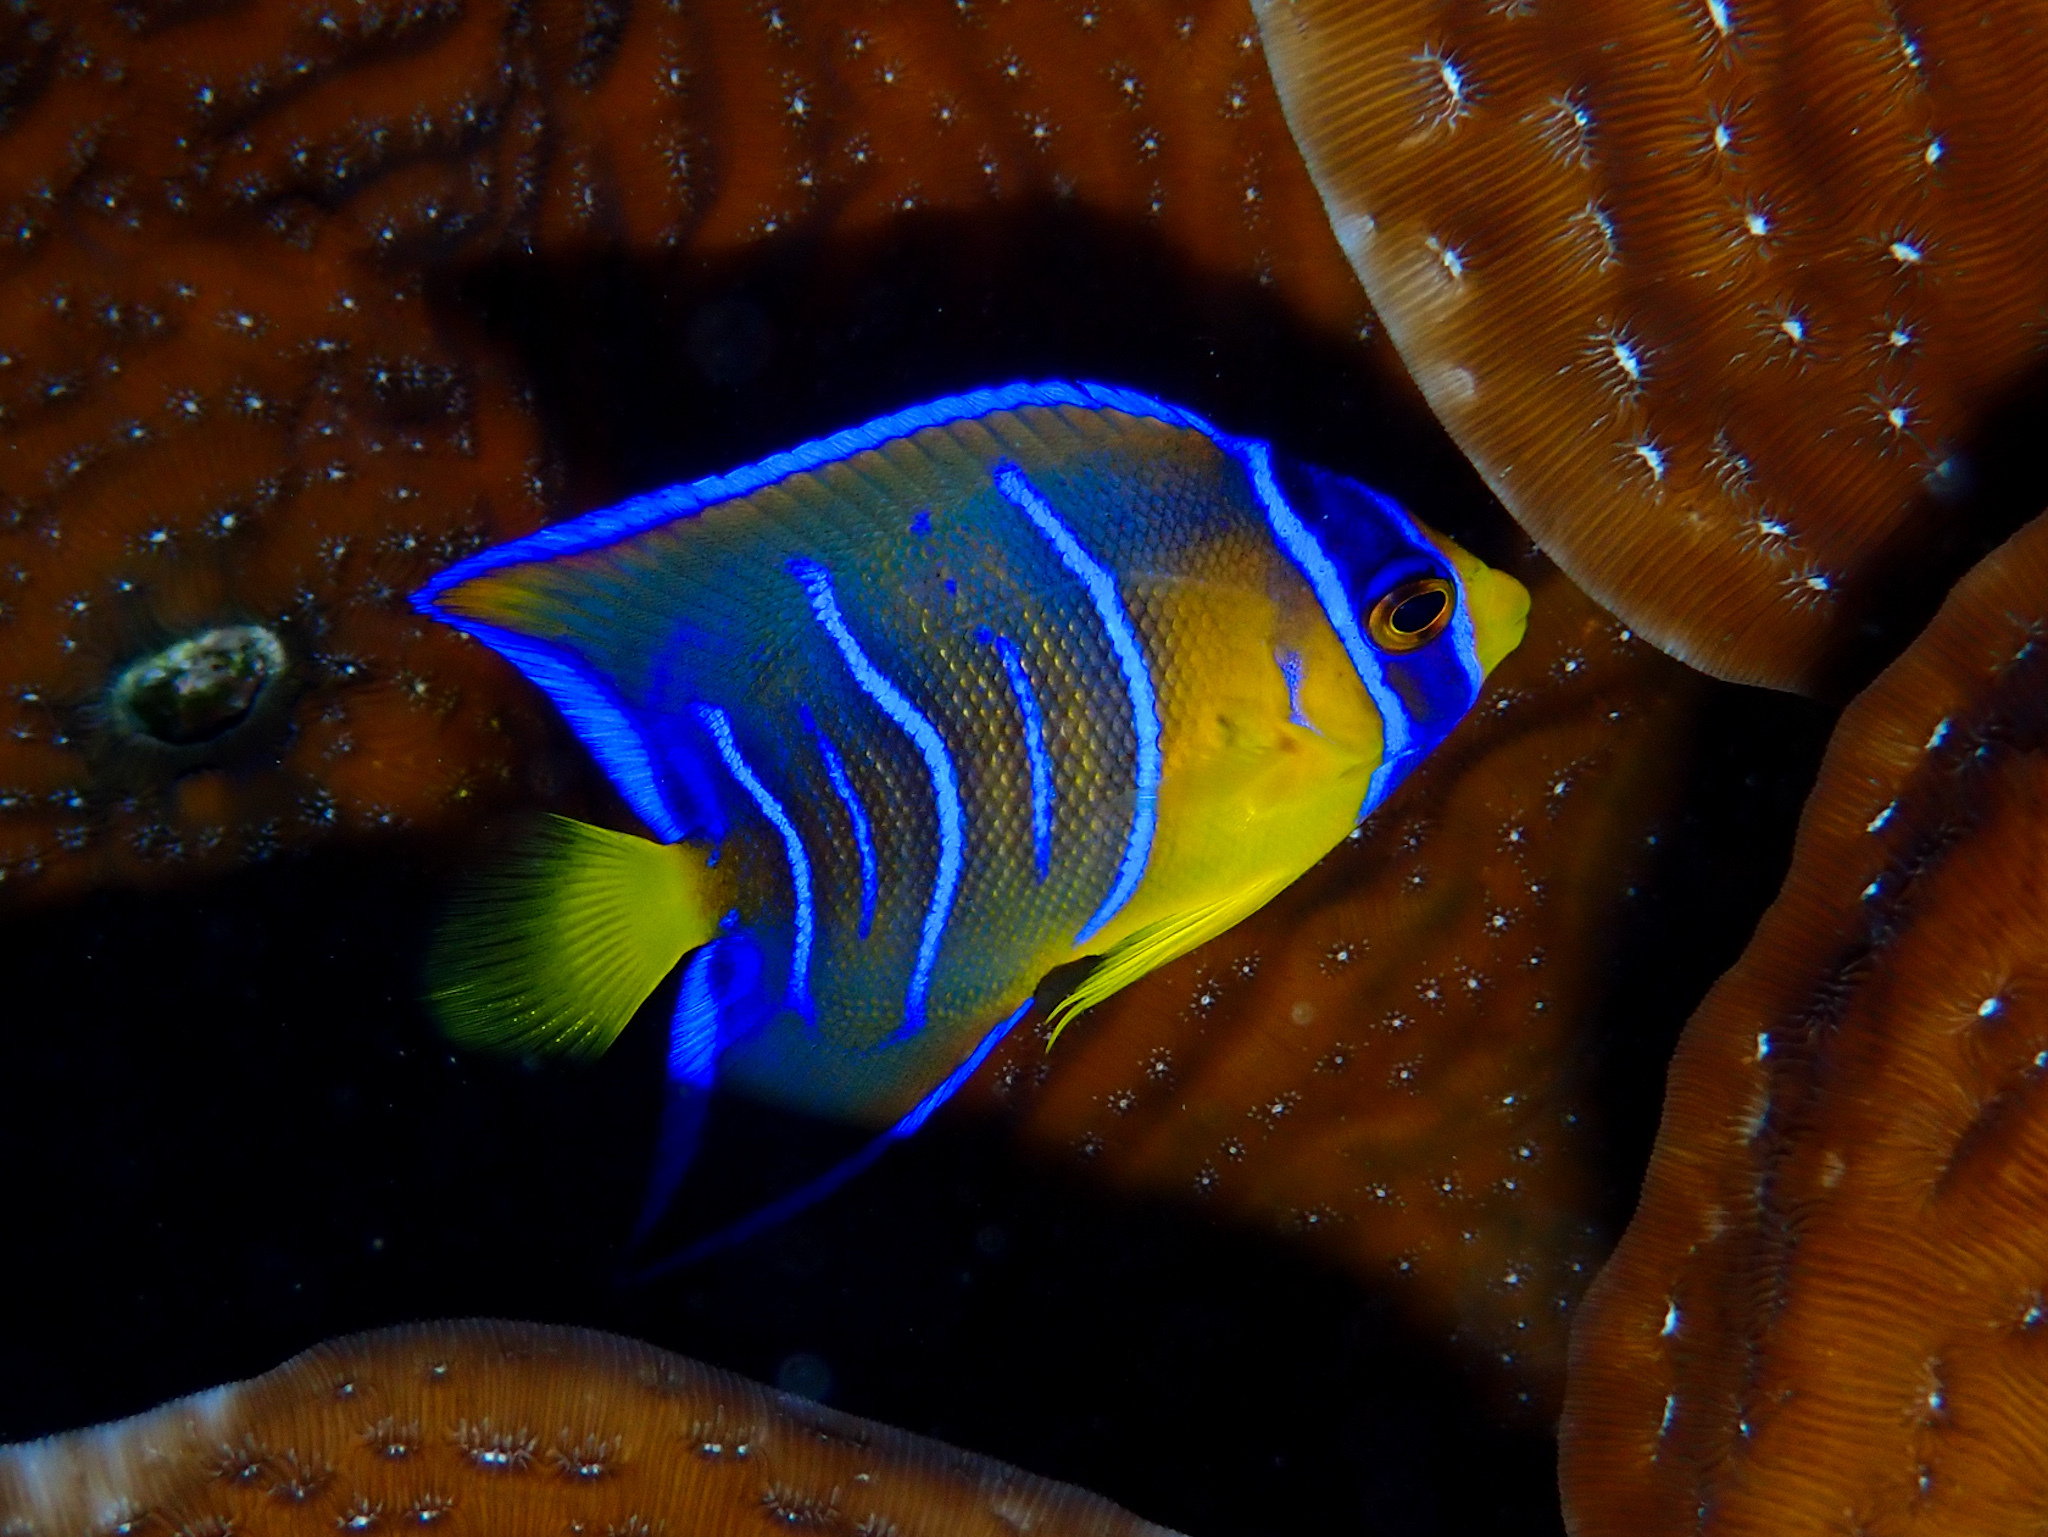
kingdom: Animalia
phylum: Chordata
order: Perciformes
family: Pomacanthidae
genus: Holacanthus
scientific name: Holacanthus ciliaris
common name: Queen angelfish
